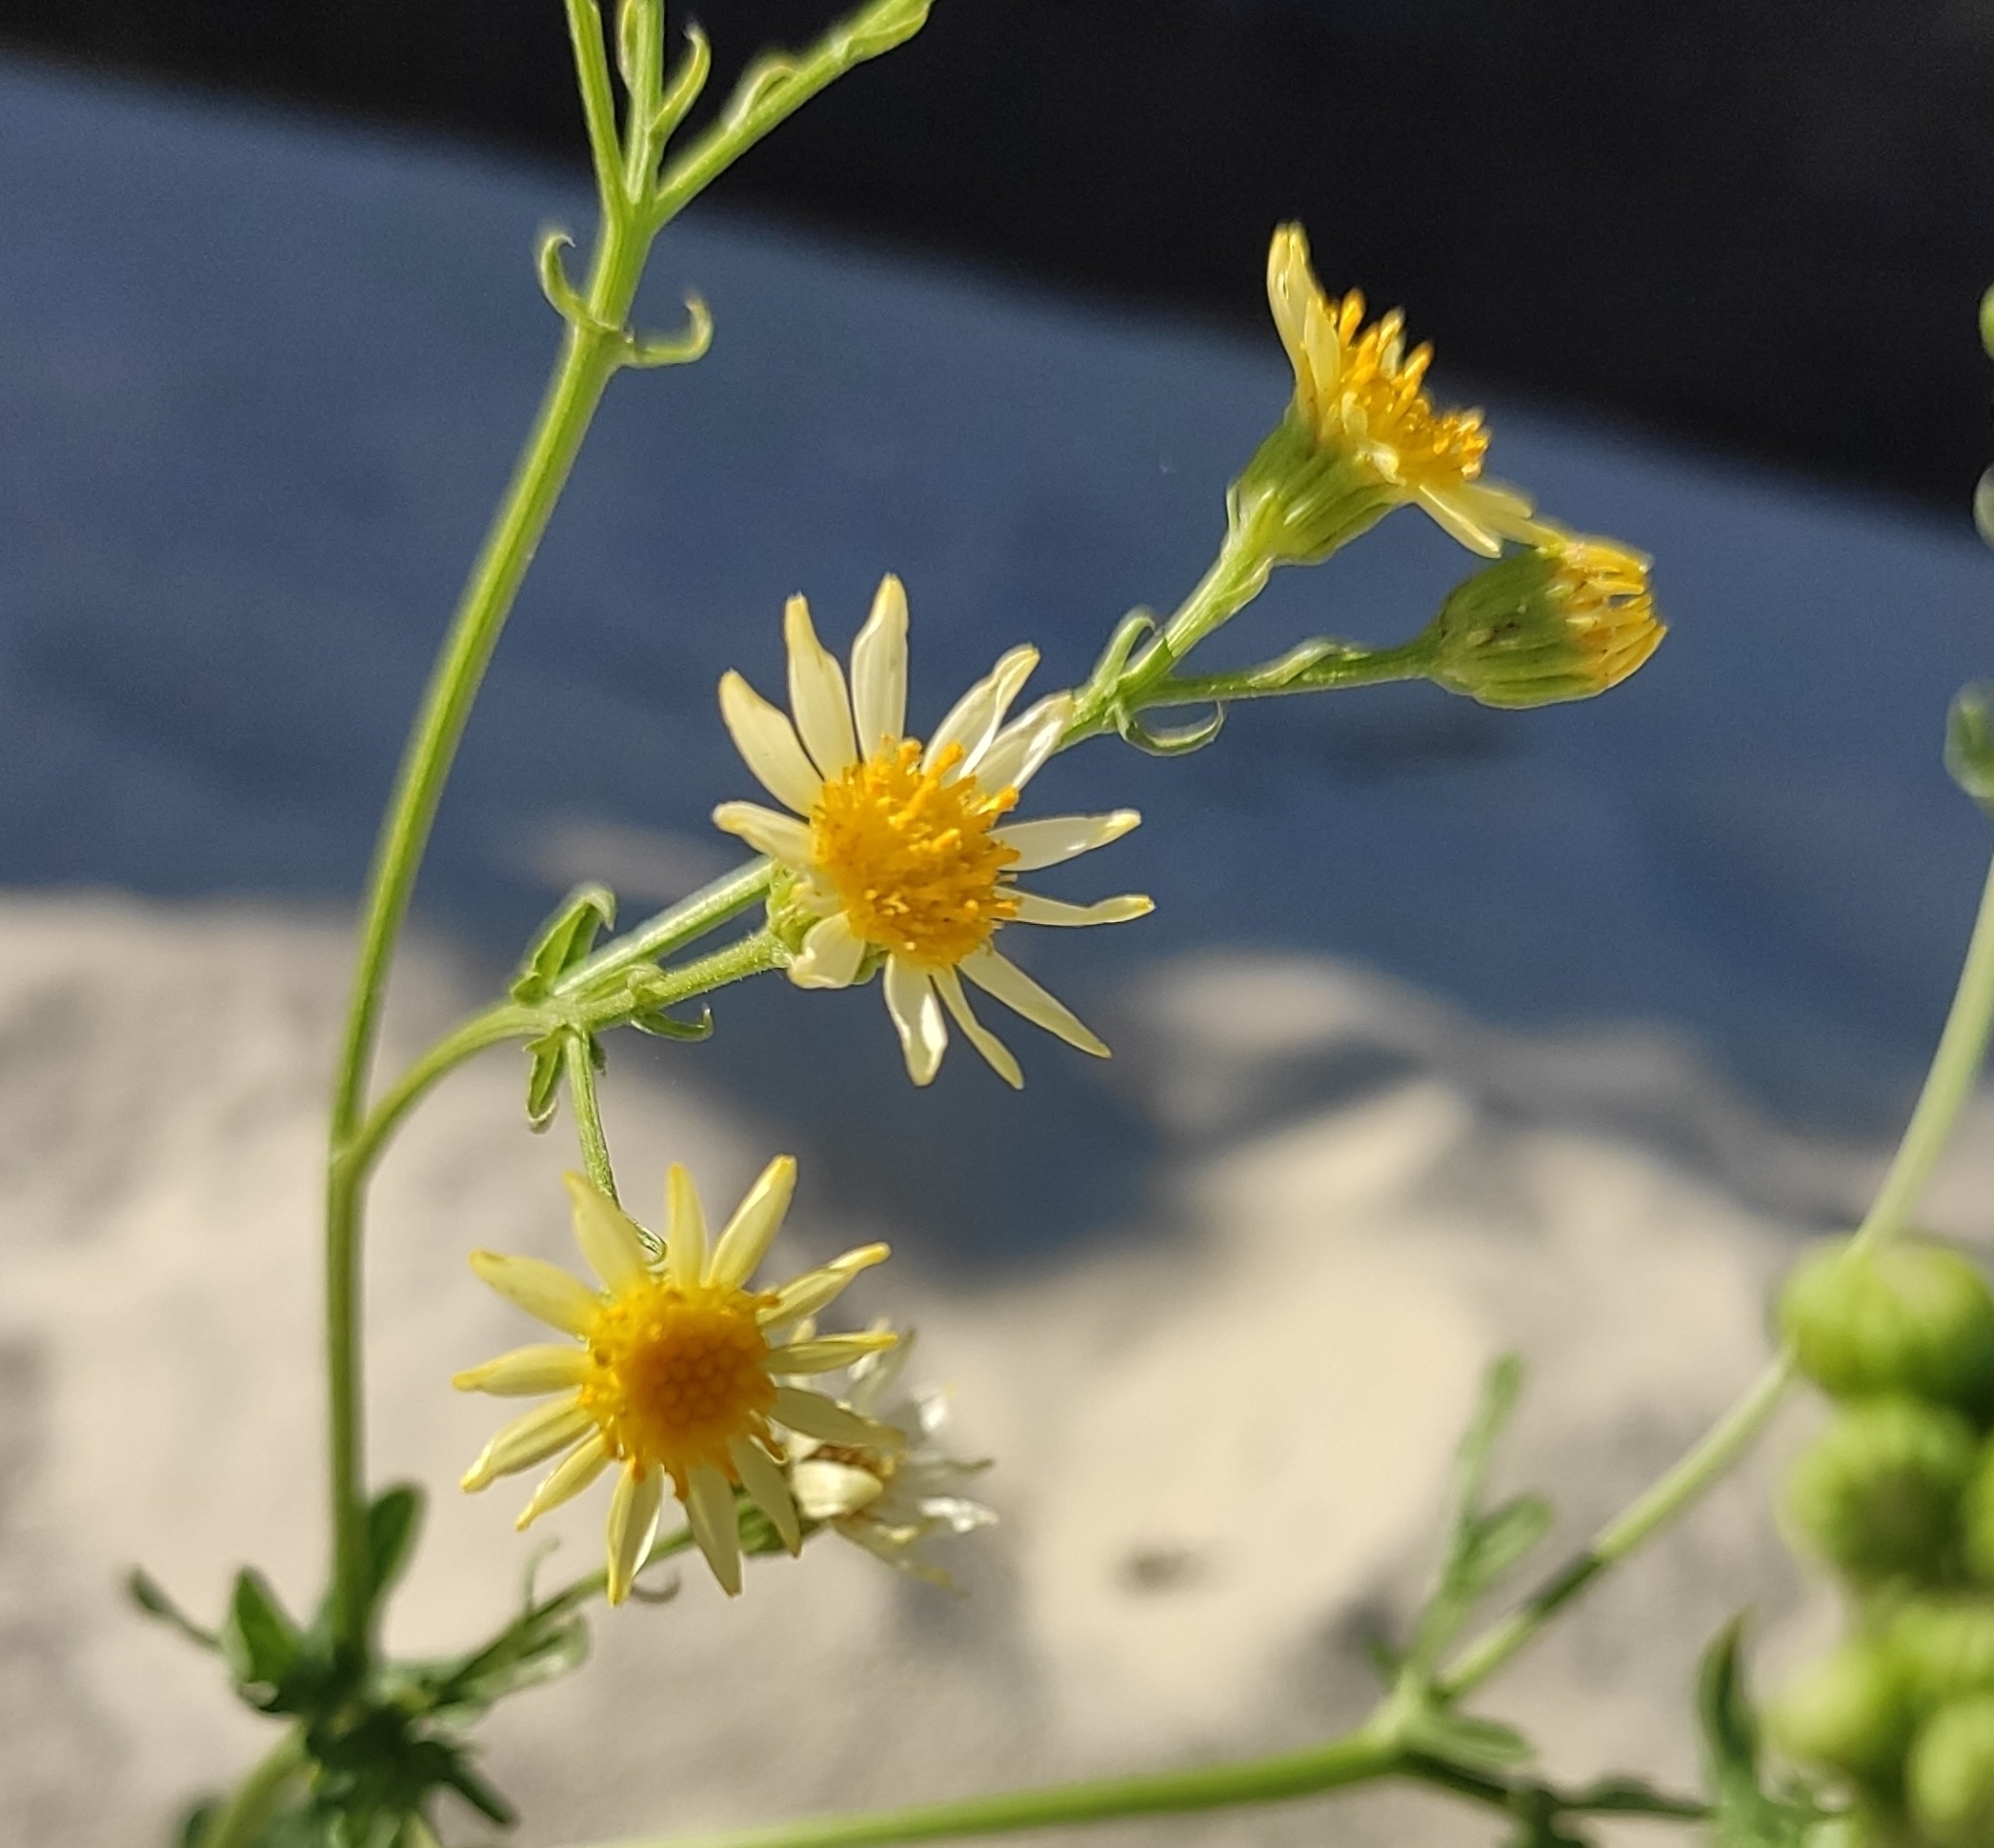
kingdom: Plantae
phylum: Tracheophyta
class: Magnoliopsida
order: Asterales
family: Asteraceae
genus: Jacobaea
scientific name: Jacobaea erucifolia
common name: Hoary ragwort
